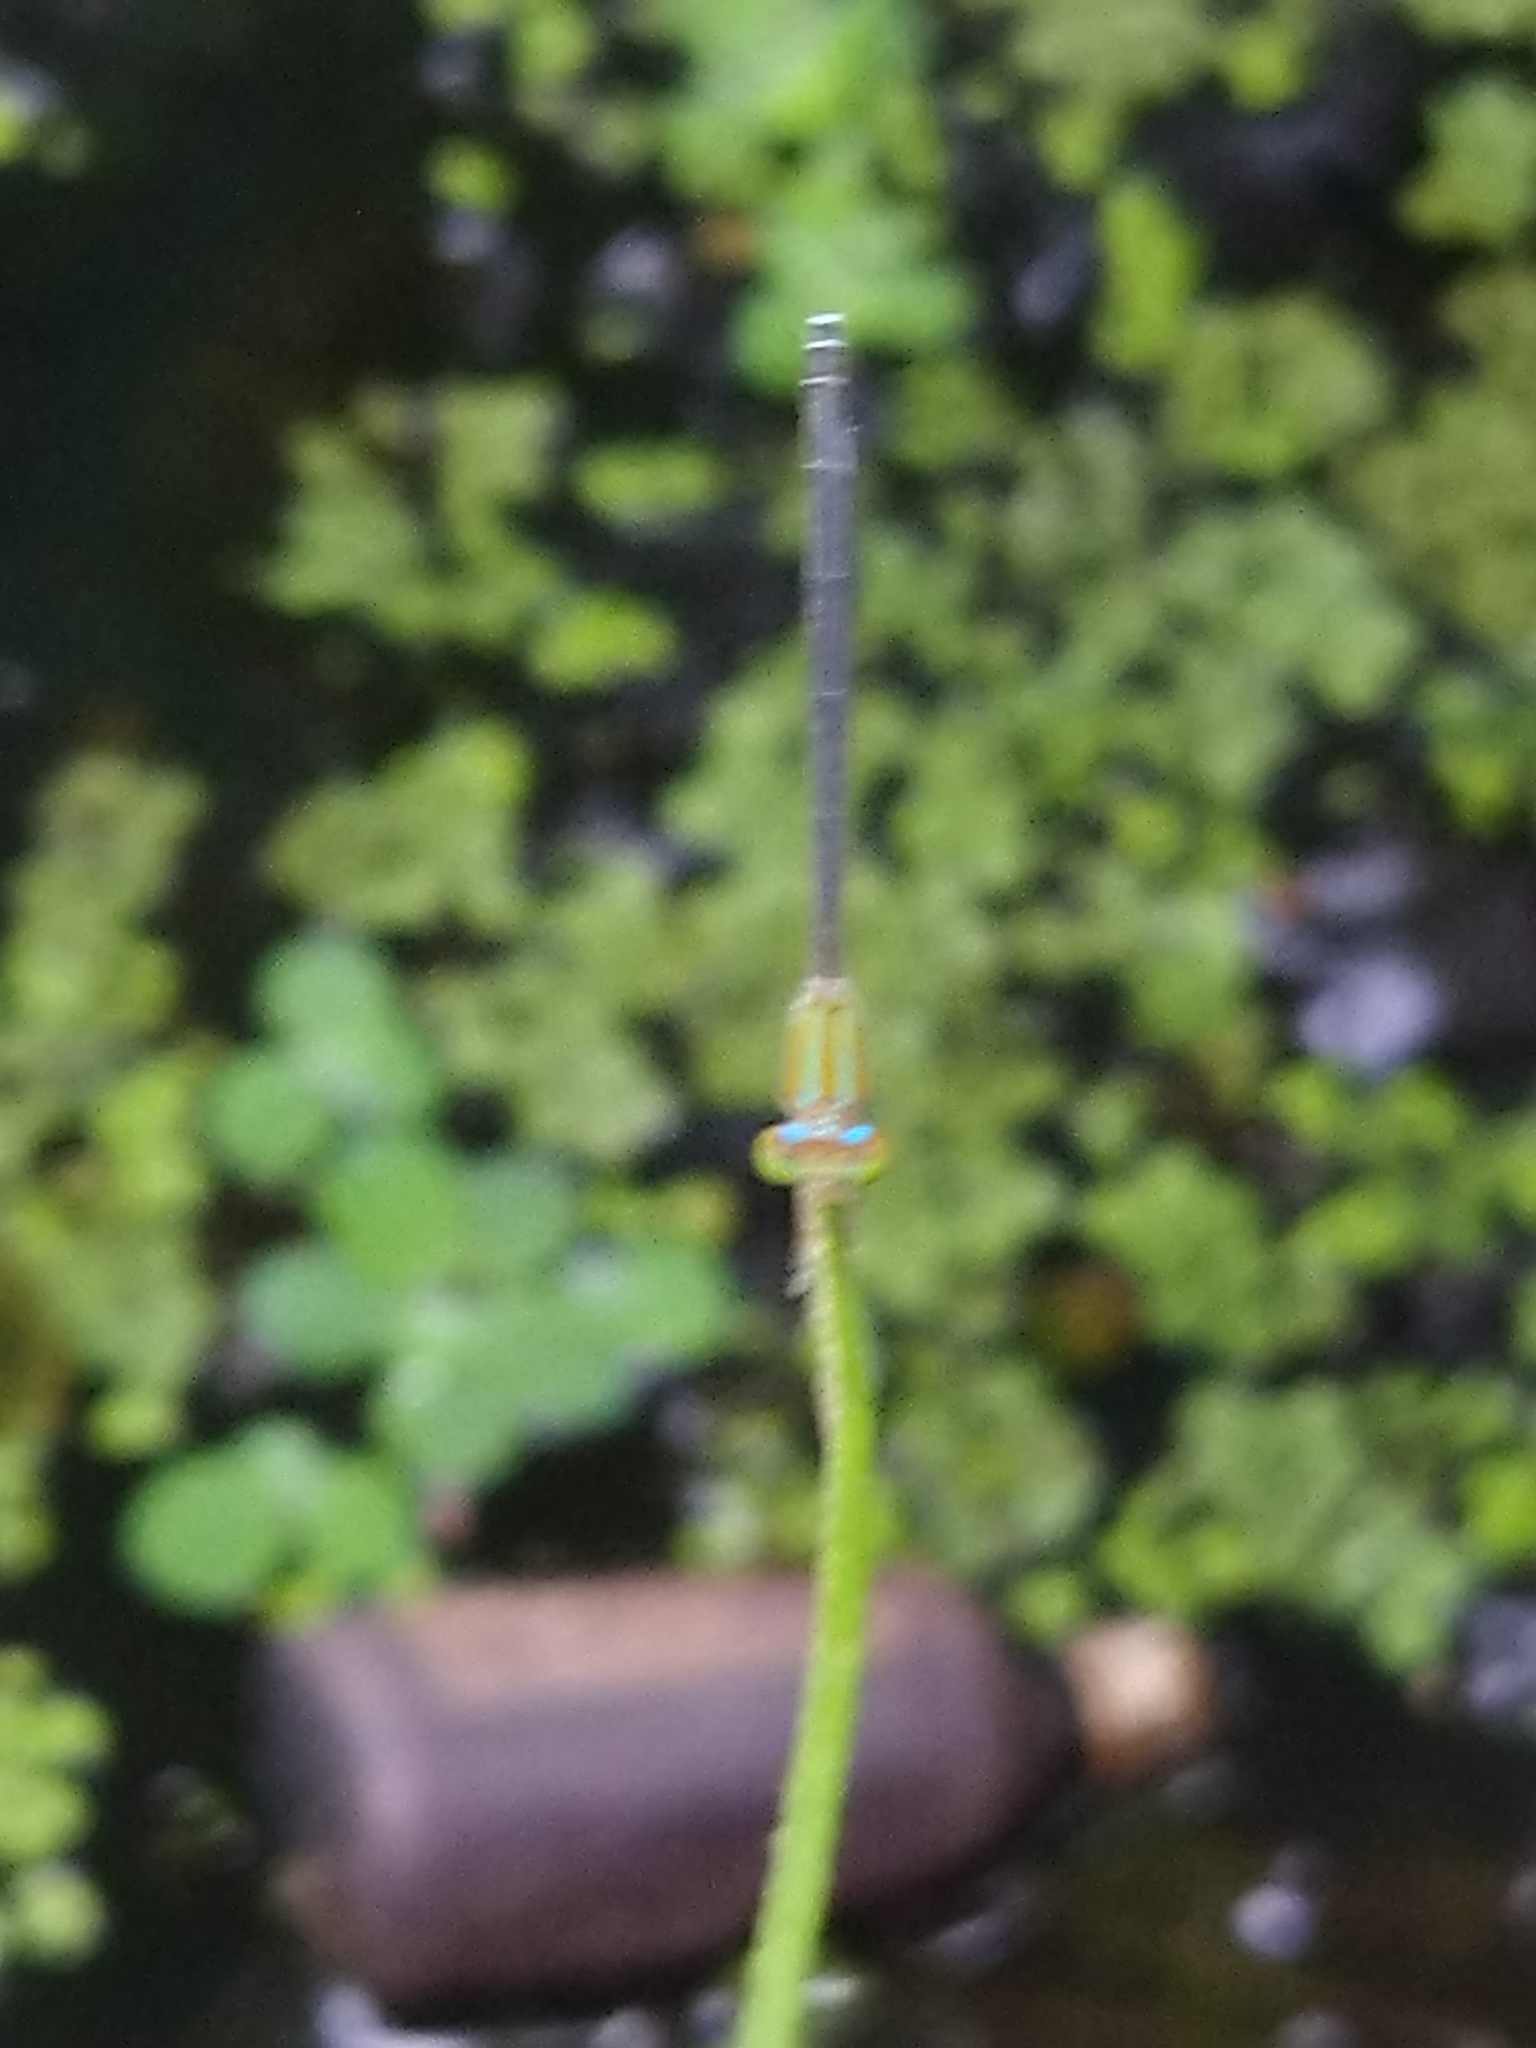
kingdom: Animalia
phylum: Arthropoda
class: Insecta
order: Odonata
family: Coenagrionidae
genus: Pseudagrion
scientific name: Pseudagrion microcephalum
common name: Blue riverdamsel
